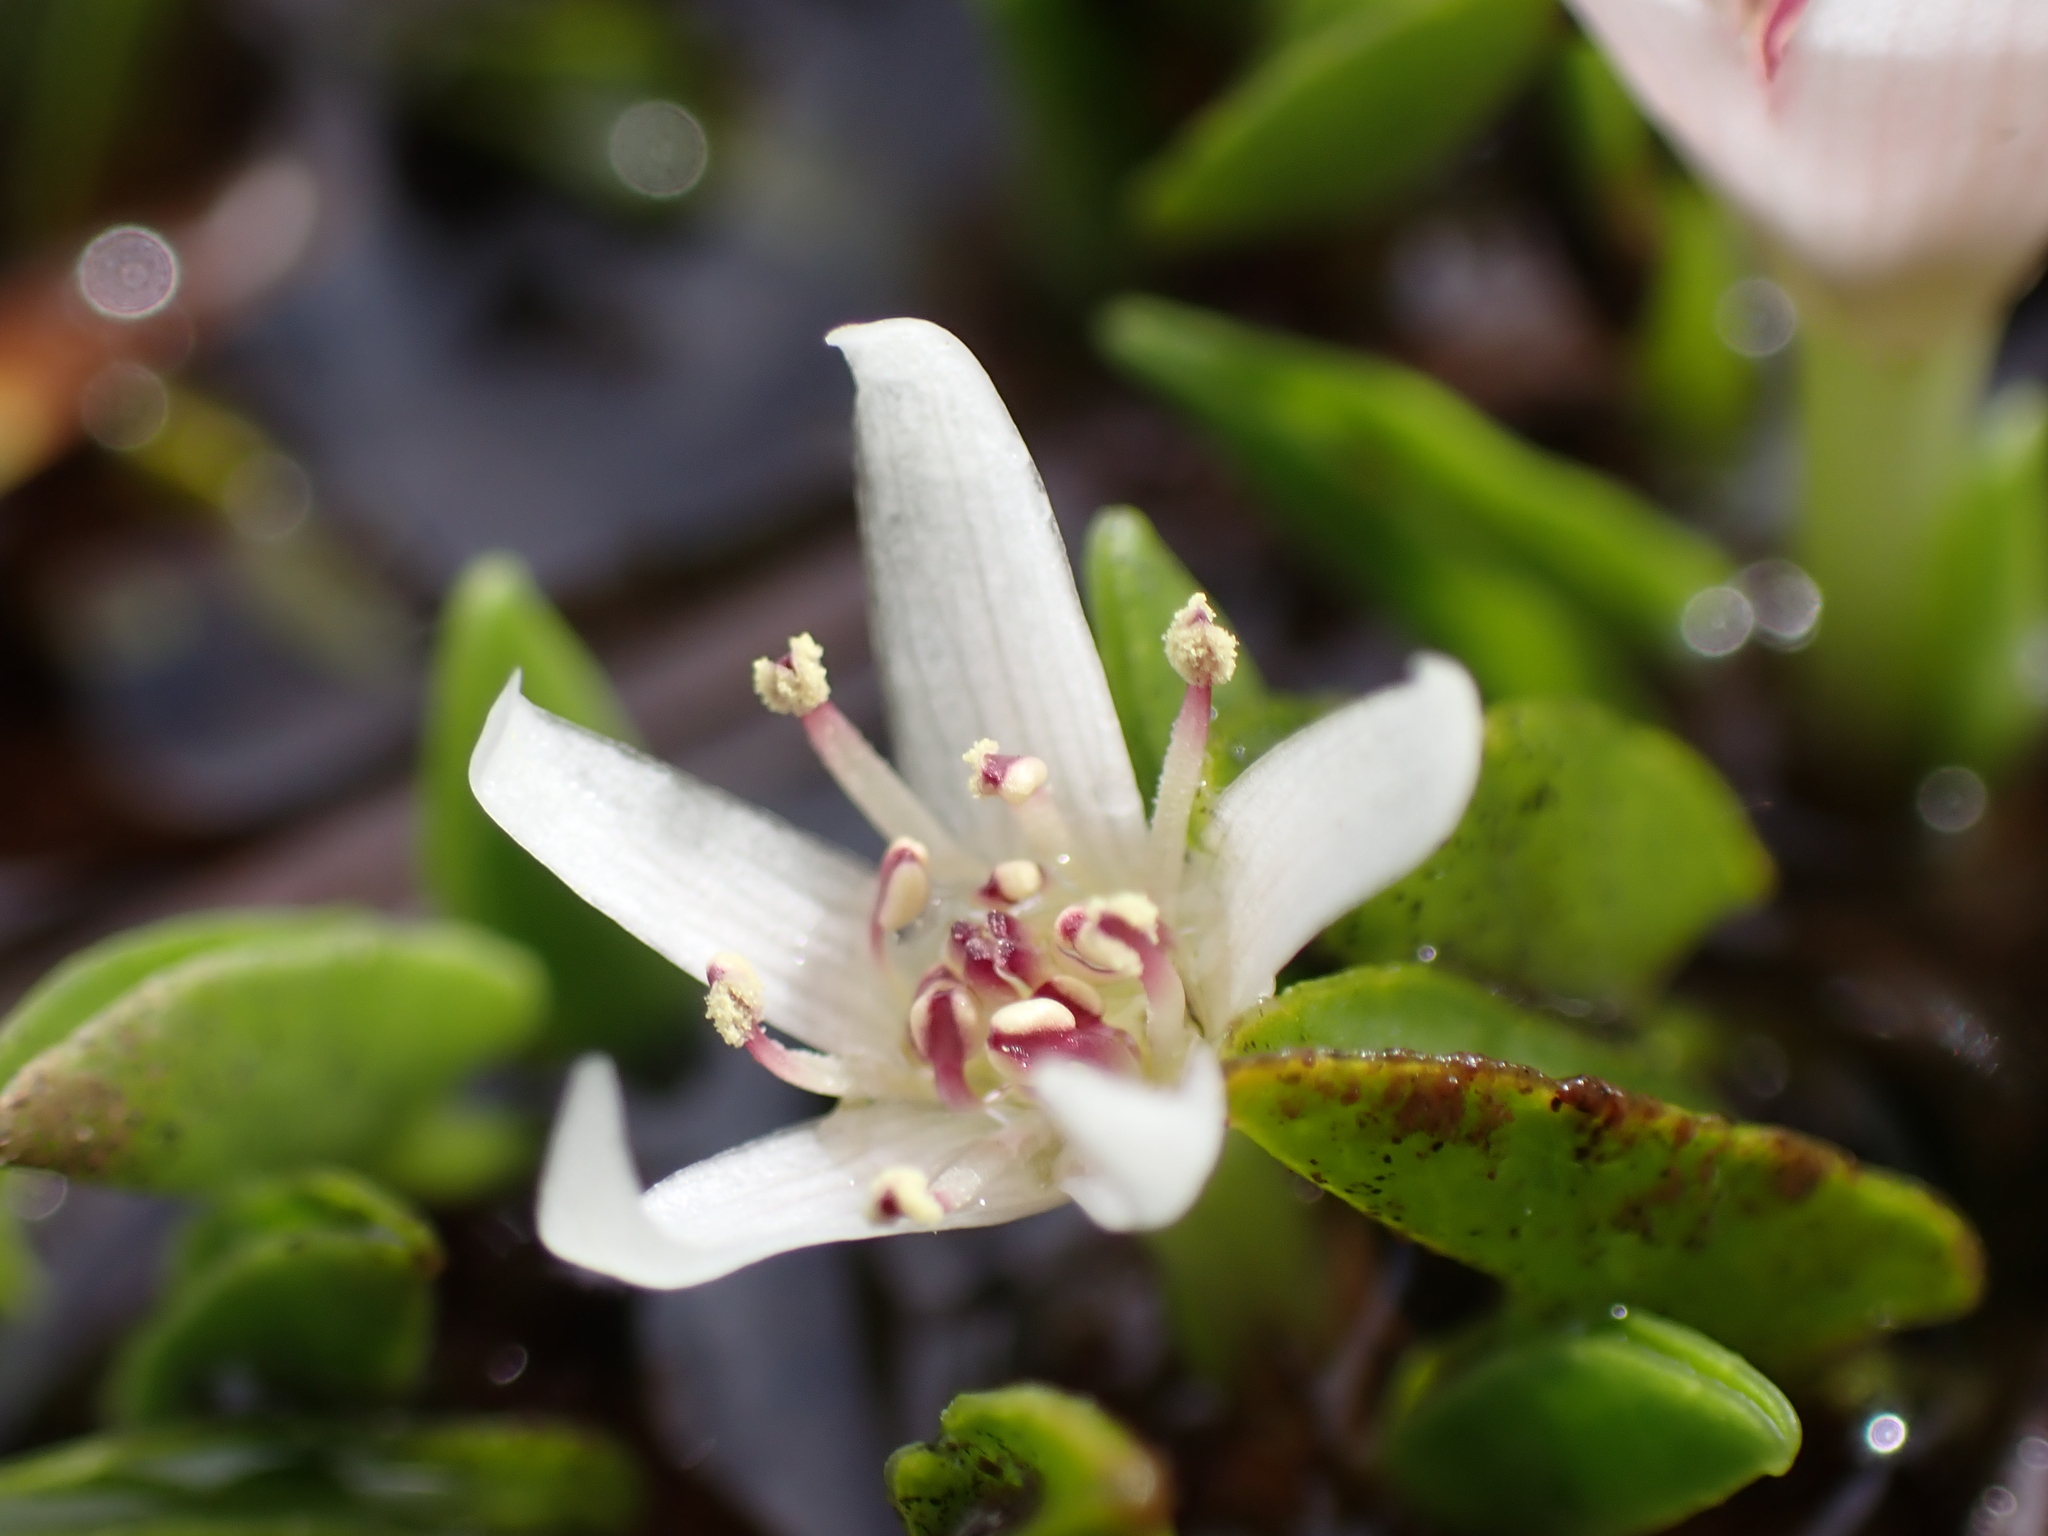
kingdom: Plantae
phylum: Tracheophyta
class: Magnoliopsida
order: Ranunculales
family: Ranunculaceae
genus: Caltha
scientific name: Caltha introloba
